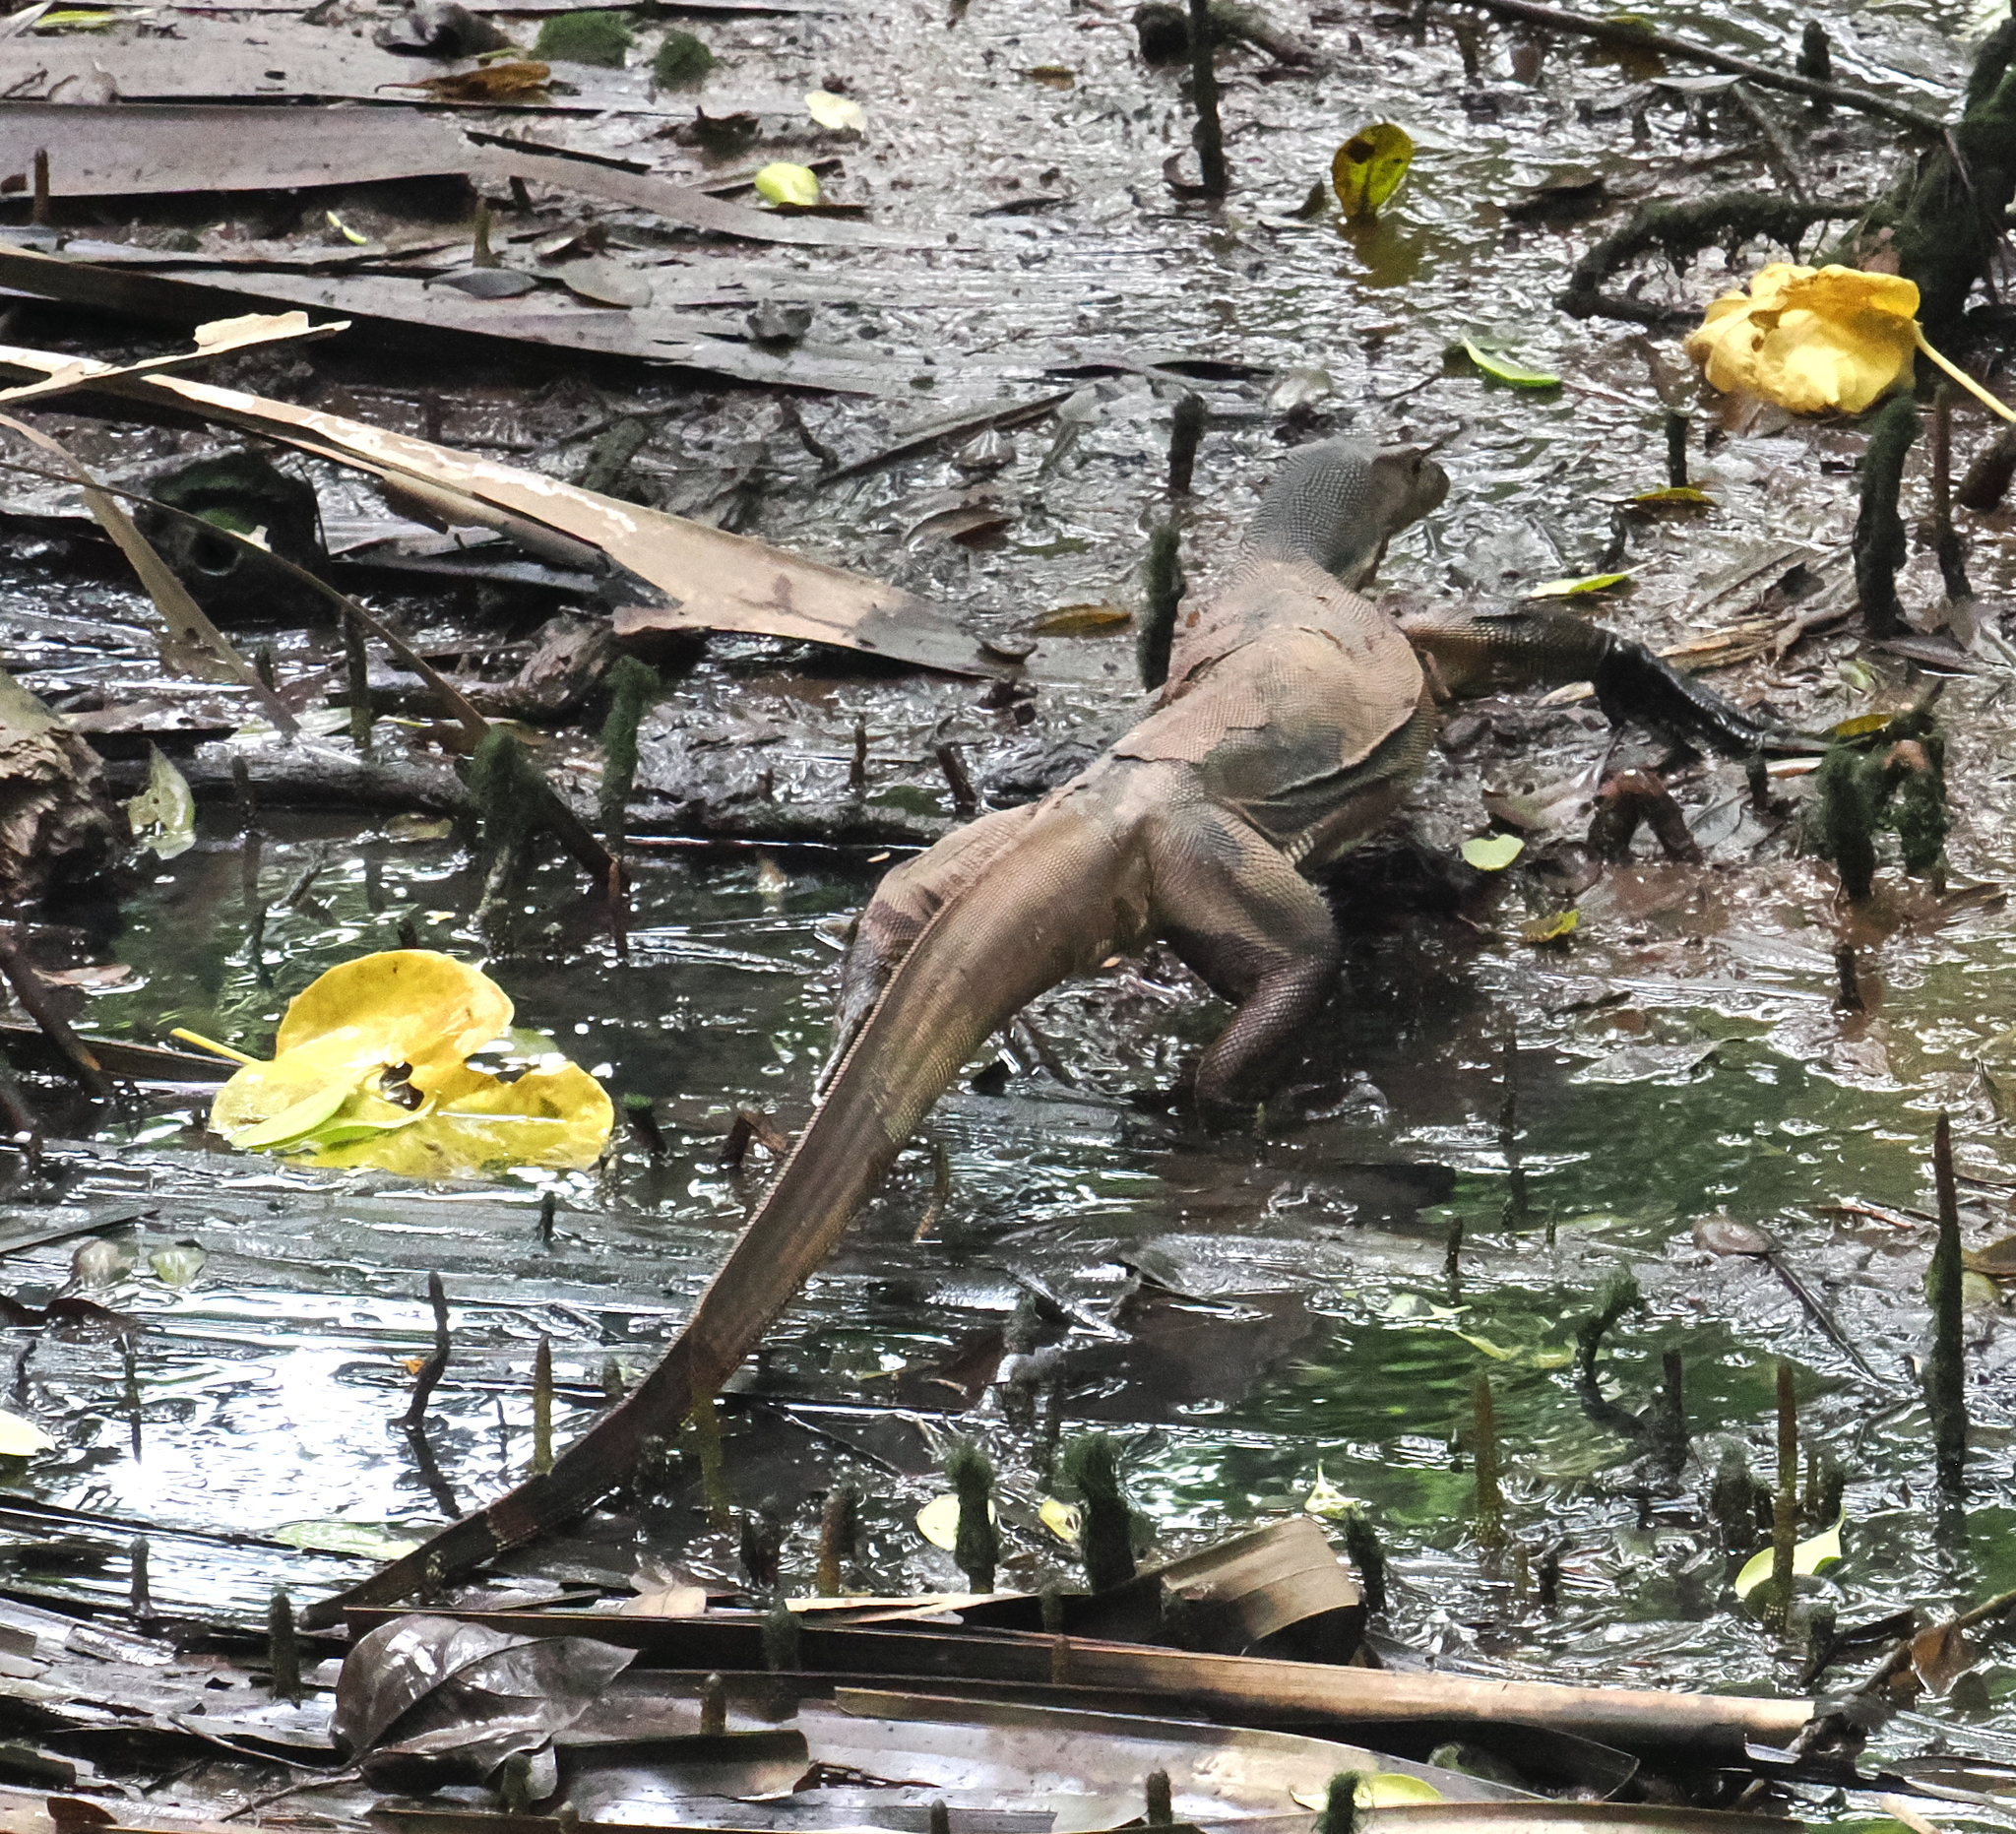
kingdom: Animalia
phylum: Chordata
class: Squamata
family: Varanidae
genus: Varanus
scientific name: Varanus salvator
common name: Common water monitor
